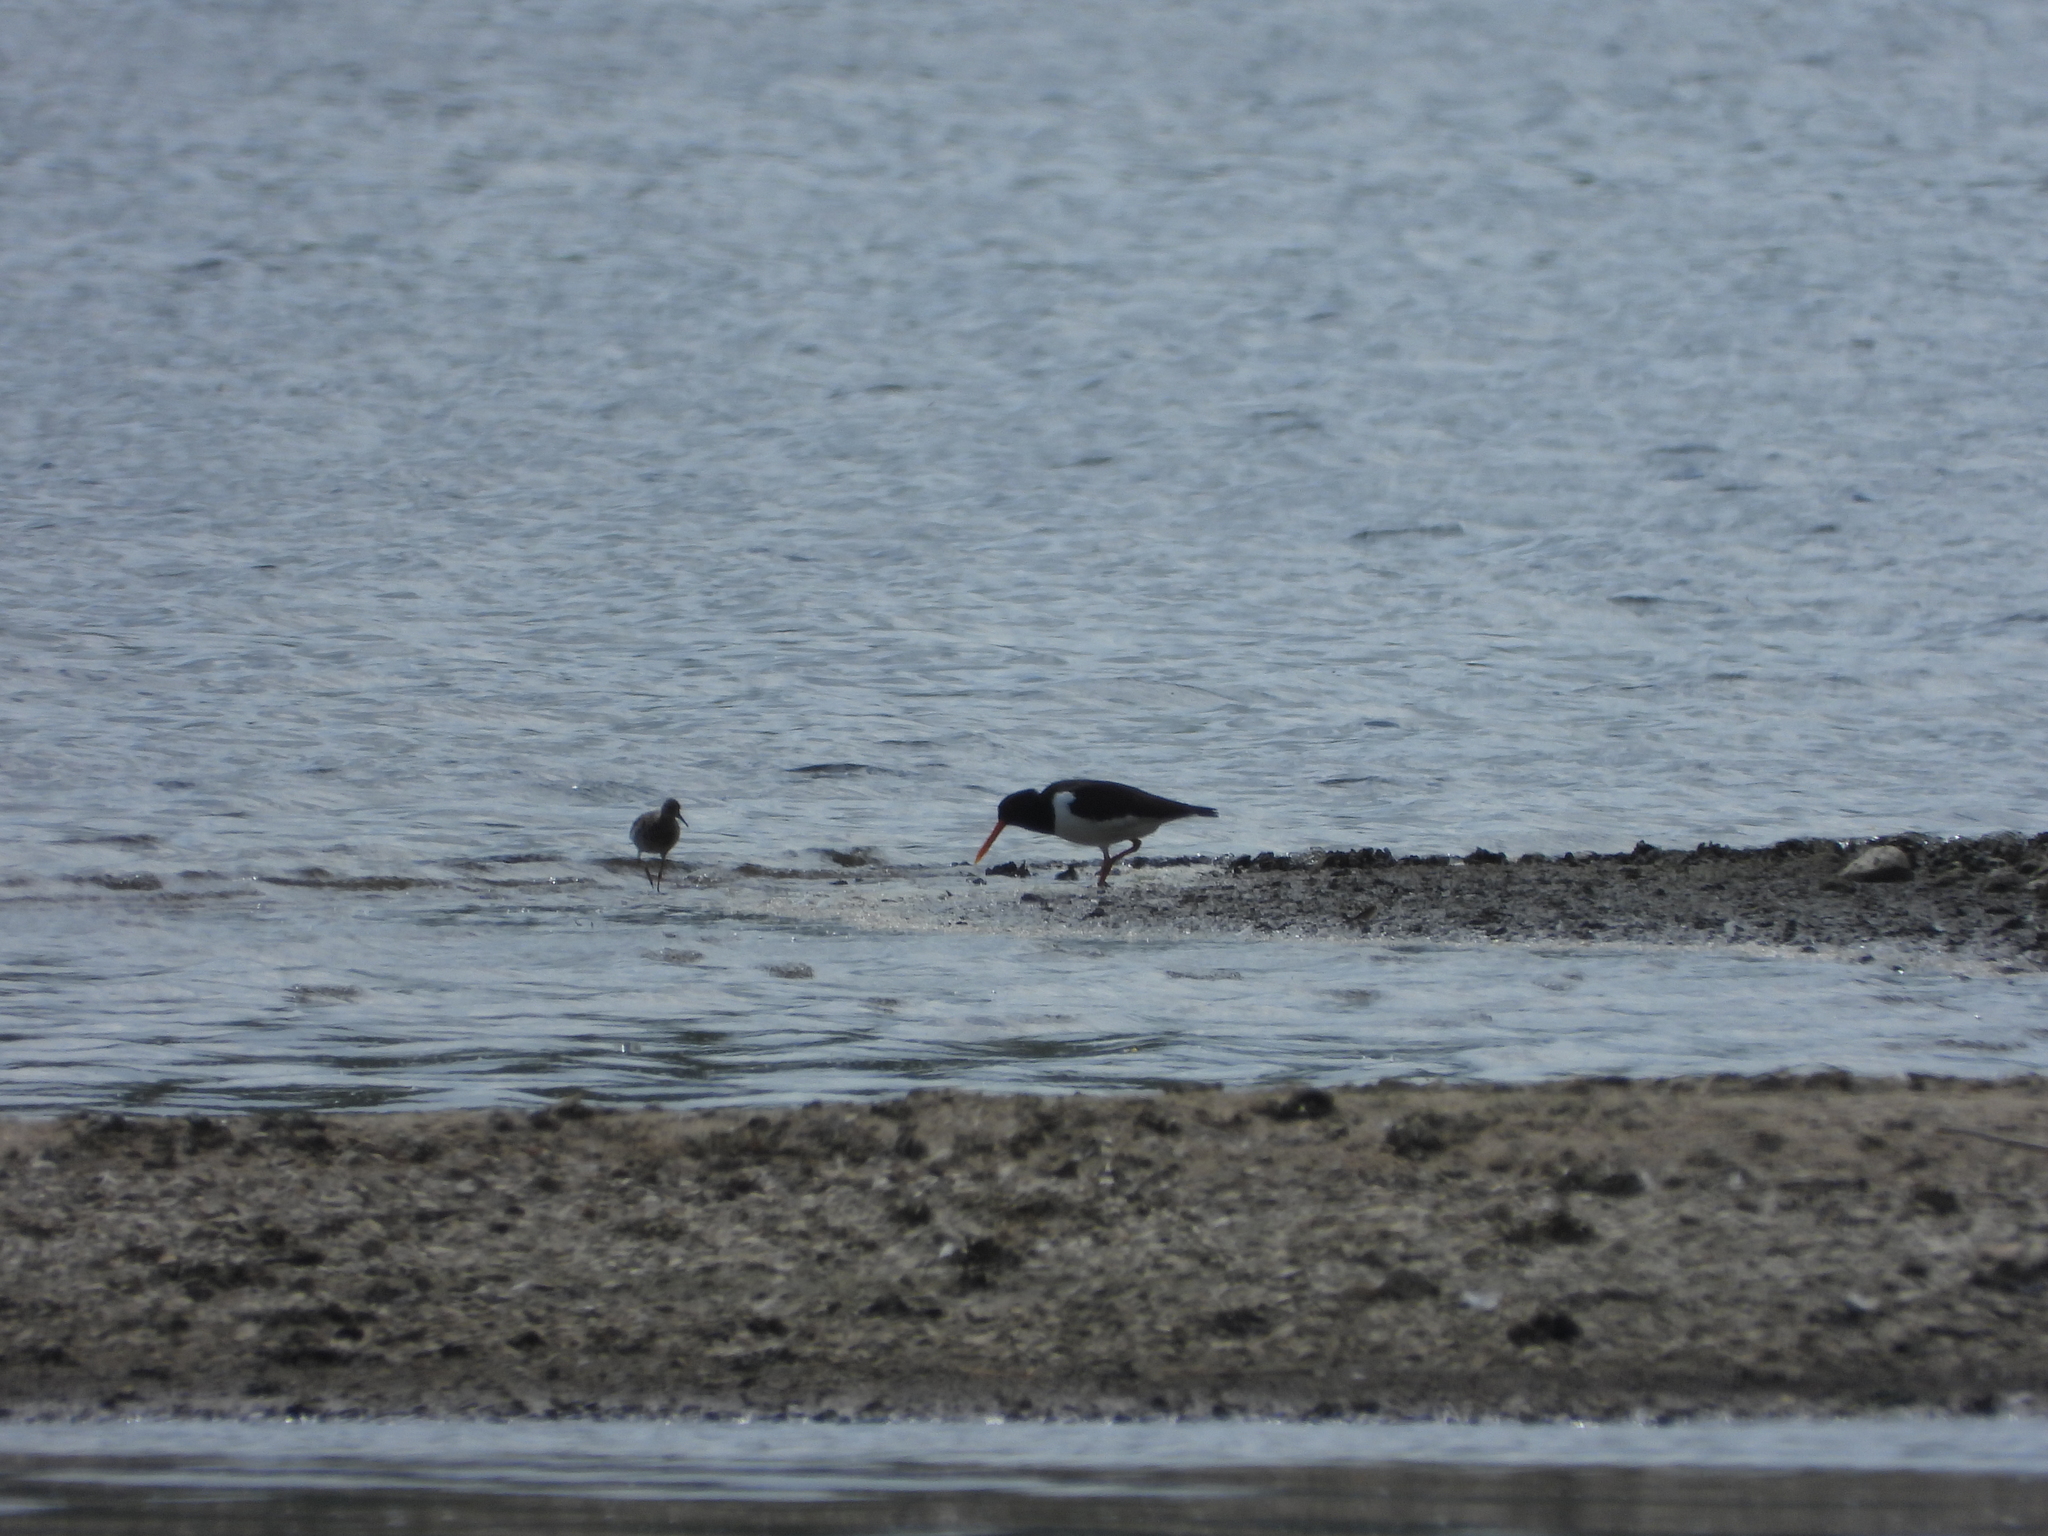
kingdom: Animalia
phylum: Chordata
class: Aves
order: Charadriiformes
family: Haematopodidae
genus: Haematopus
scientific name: Haematopus ostralegus
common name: Eurasian oystercatcher
